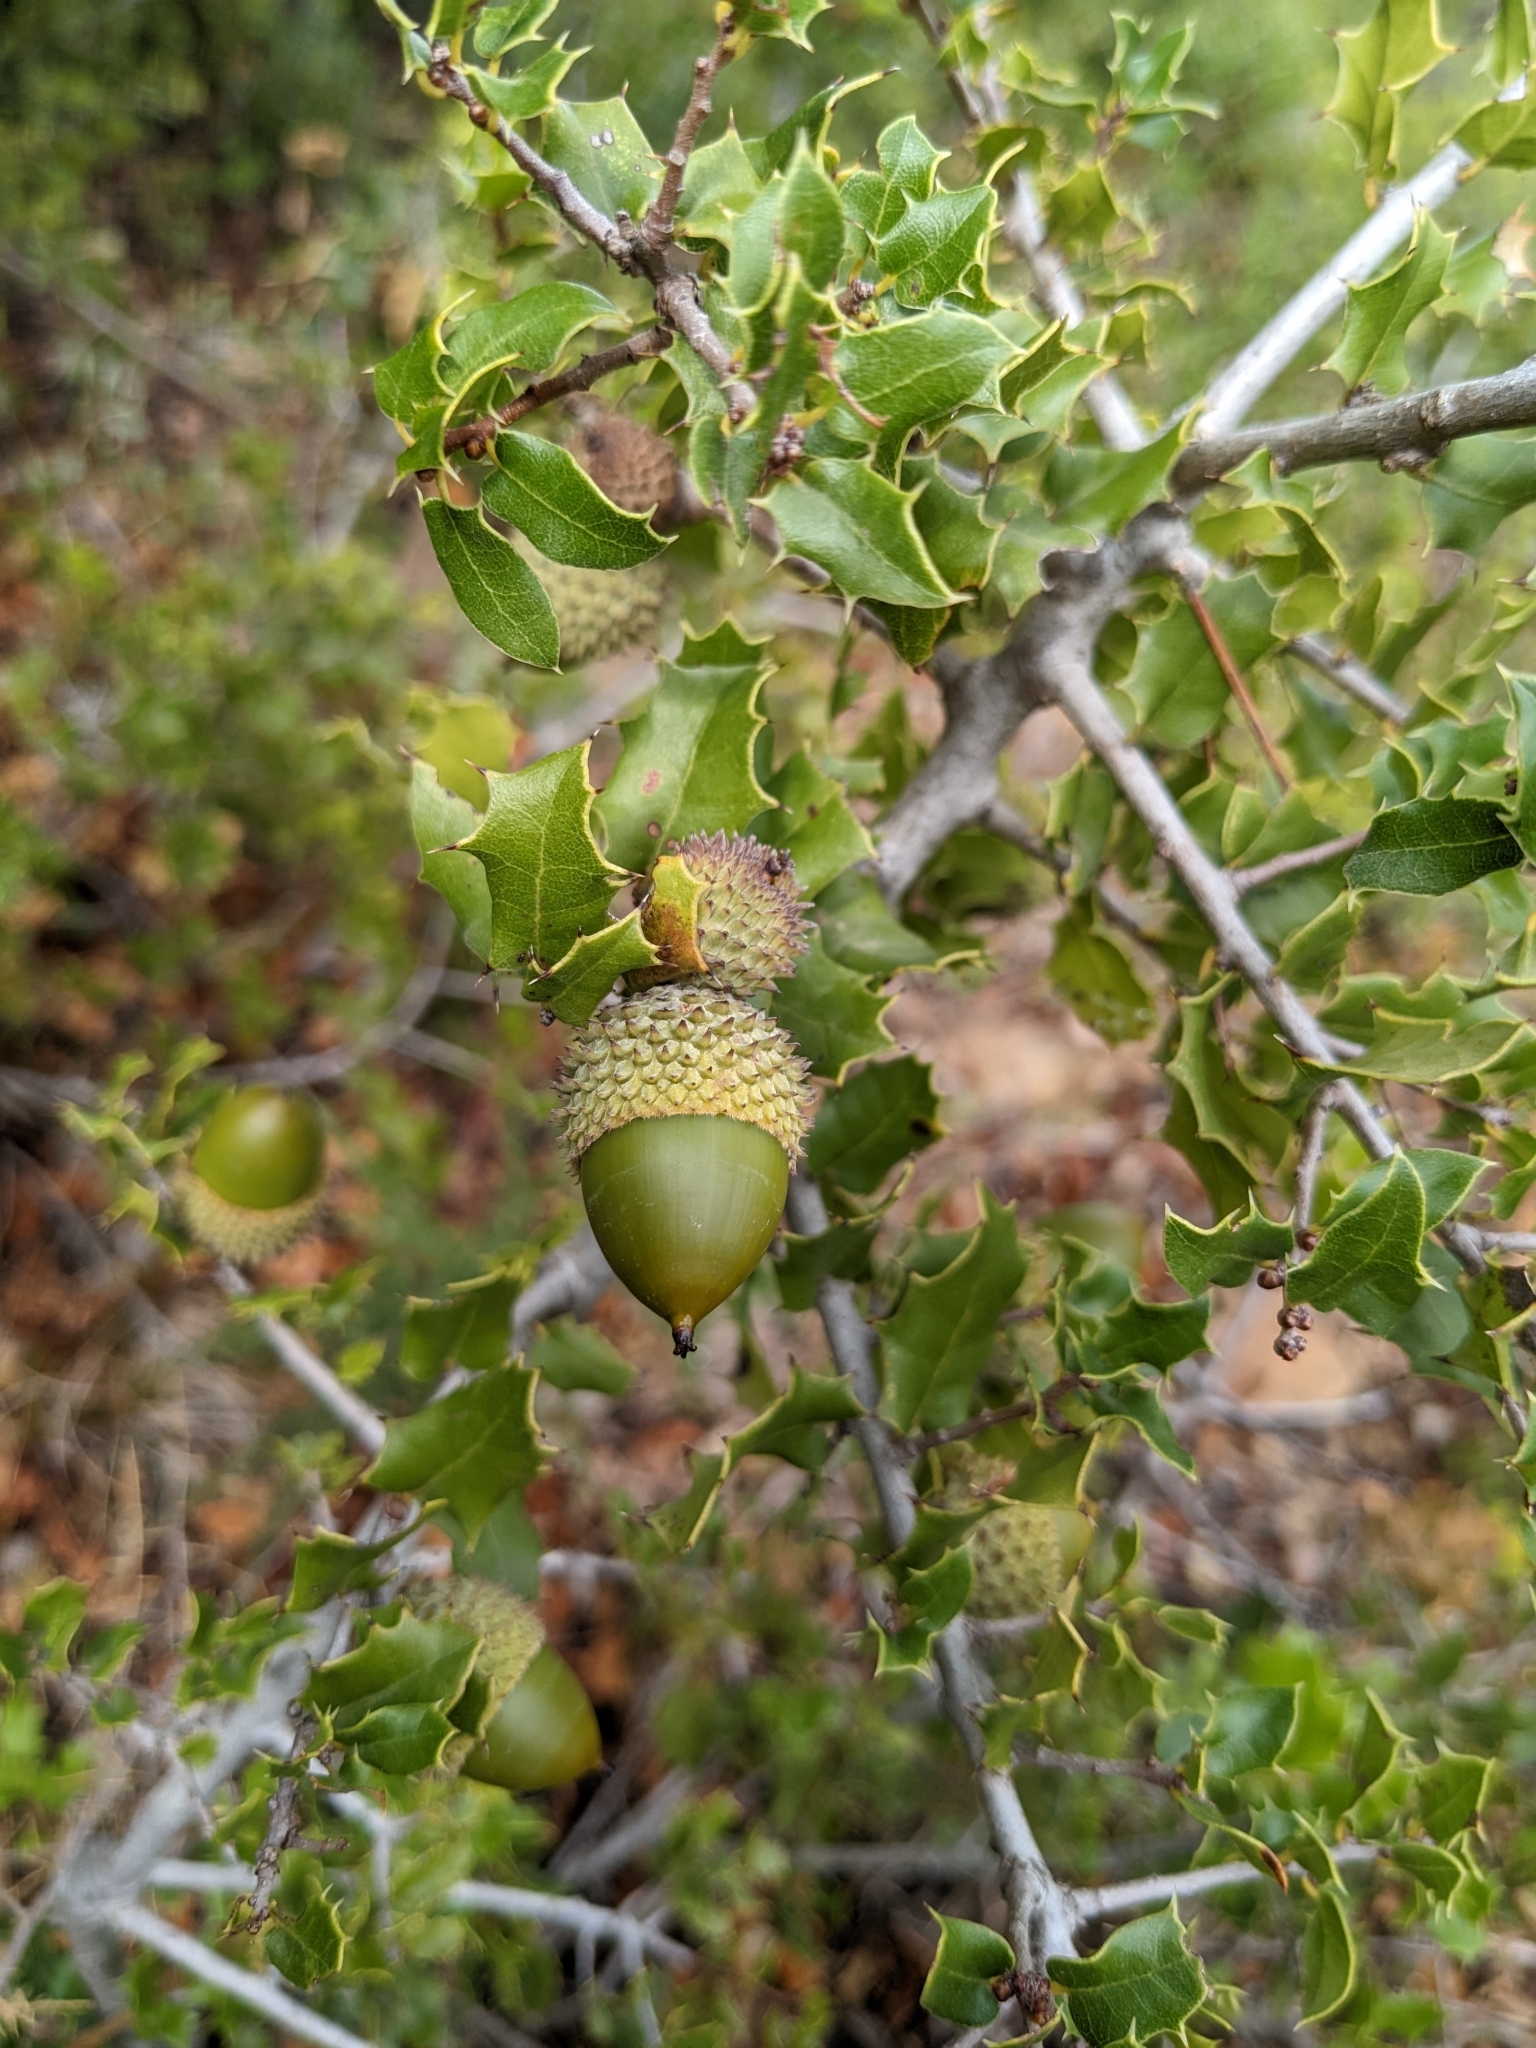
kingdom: Plantae
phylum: Tracheophyta
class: Magnoliopsida
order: Fagales
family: Fagaceae
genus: Quercus
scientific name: Quercus coccifera
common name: Kermes oak
